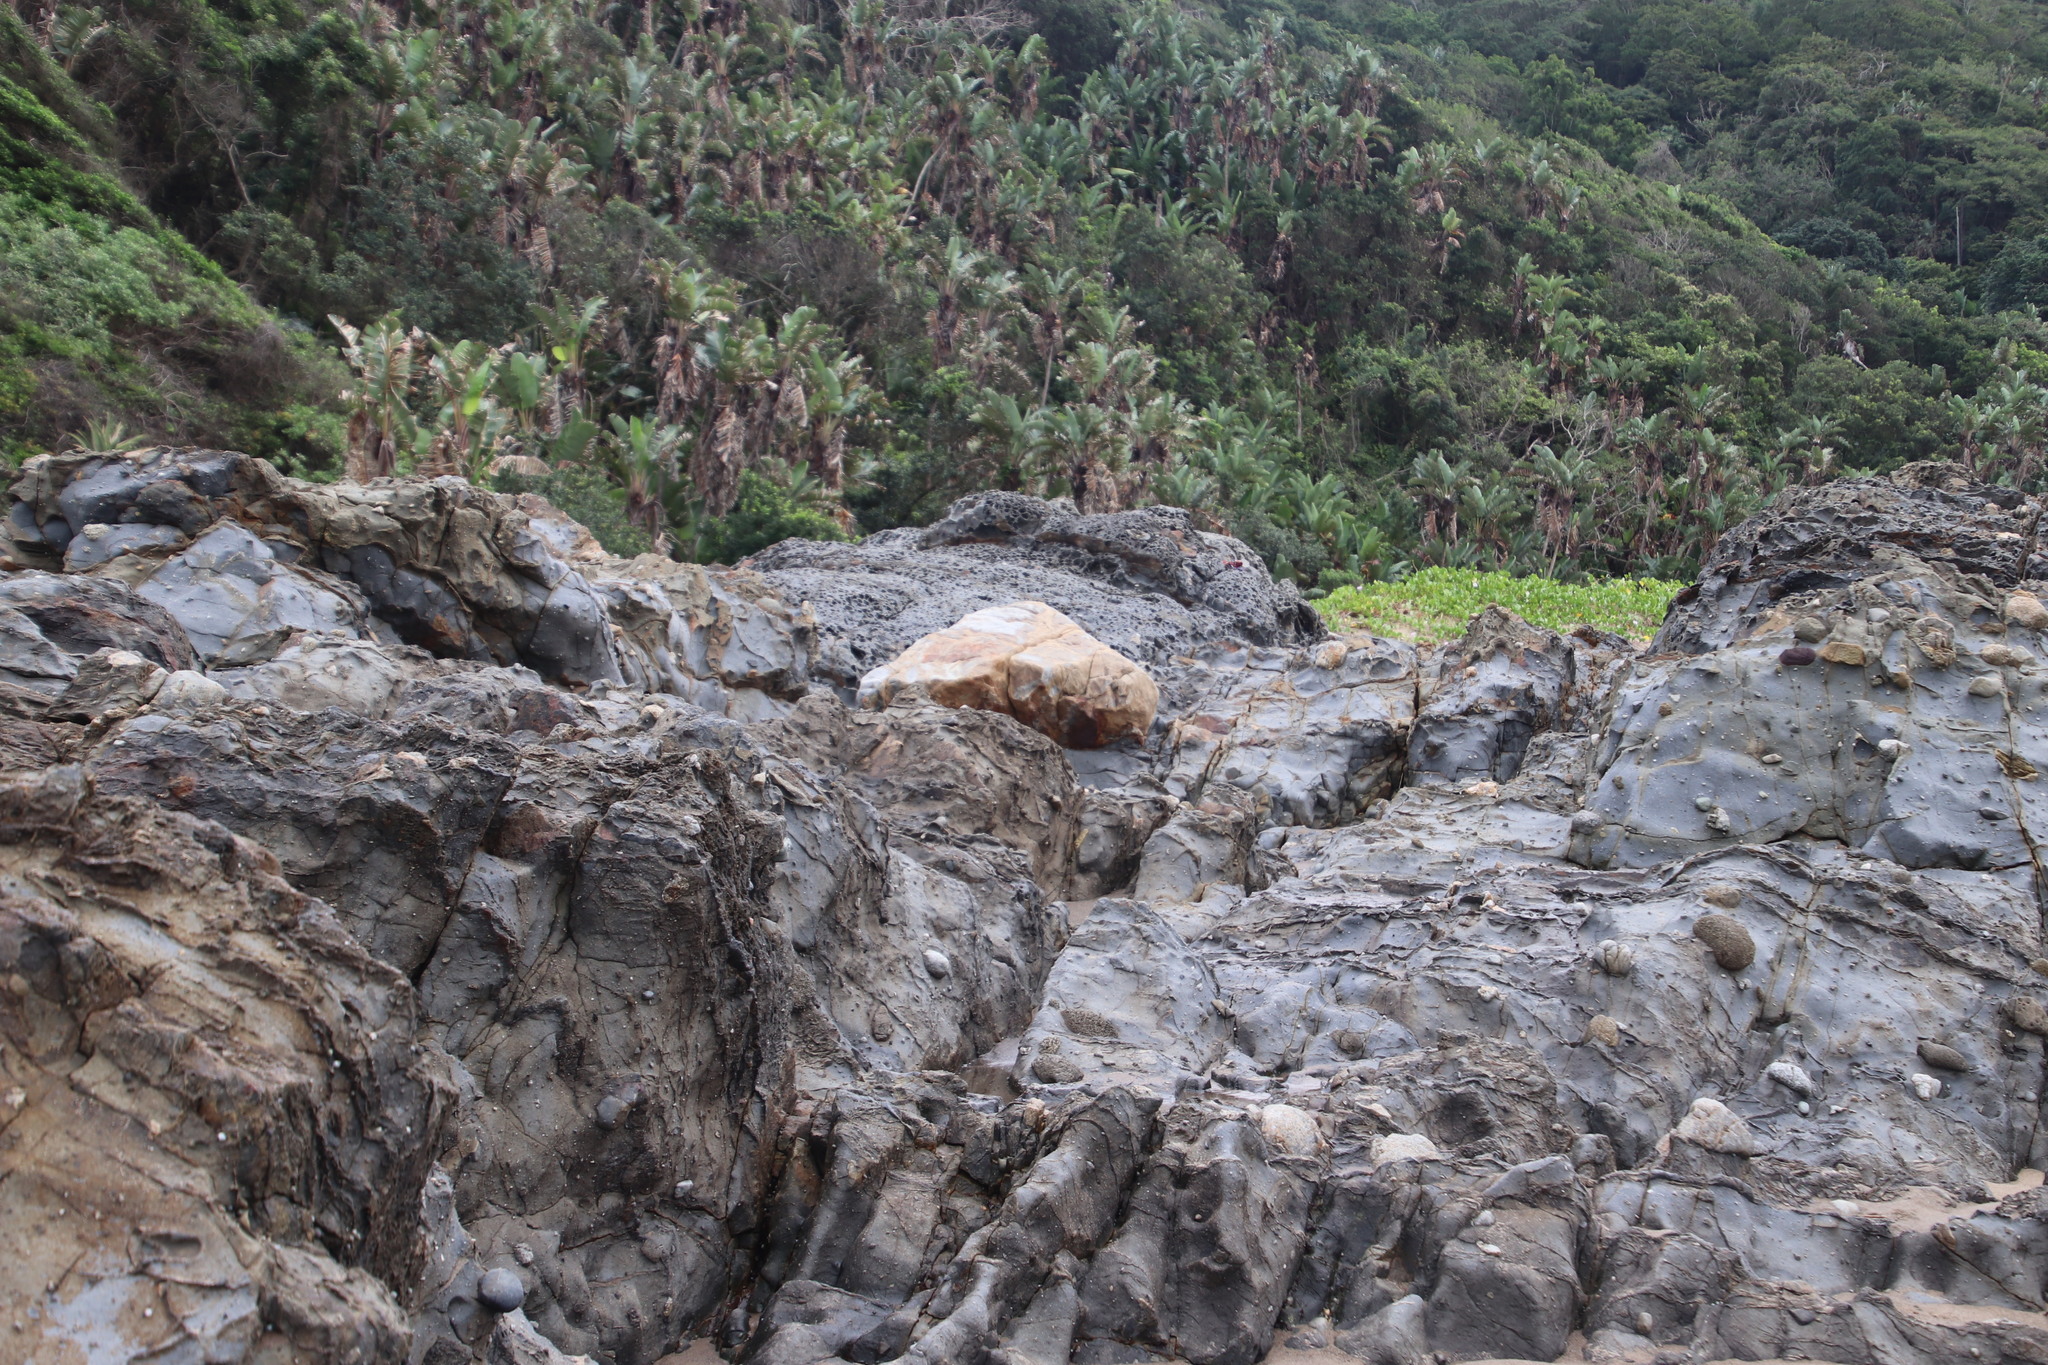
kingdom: Plantae
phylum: Tracheophyta
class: Liliopsida
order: Zingiberales
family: Strelitziaceae
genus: Strelitzia
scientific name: Strelitzia nicolai
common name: Bird-of-paradise tree
